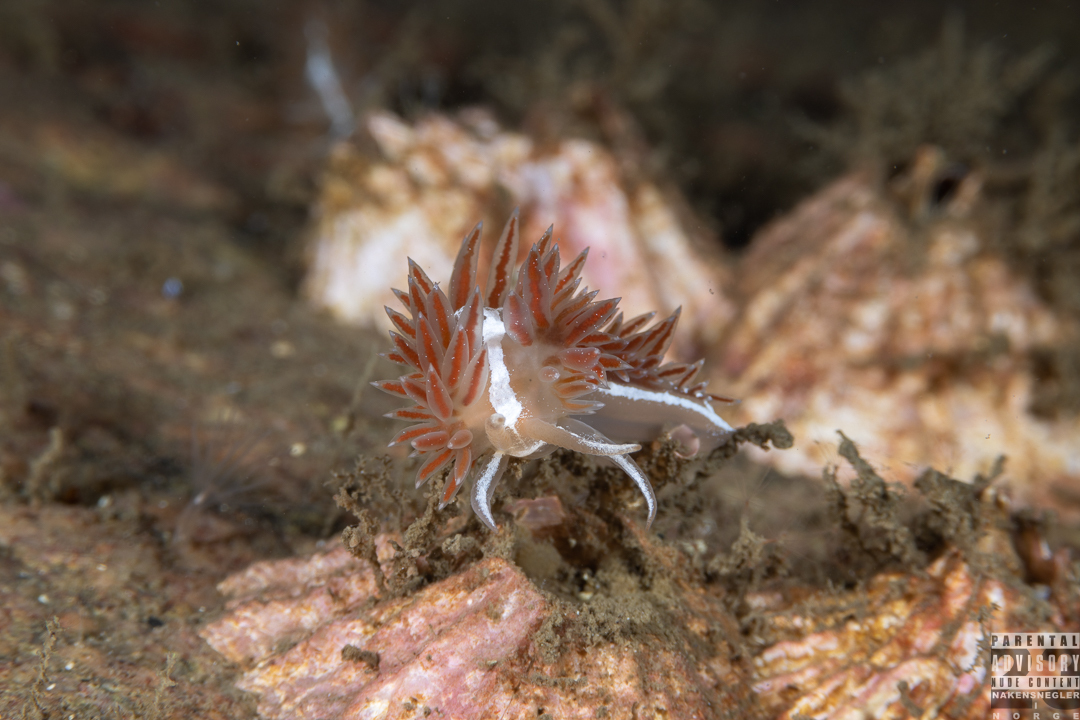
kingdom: Animalia
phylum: Mollusca
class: Gastropoda
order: Nudibranchia
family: Coryphellidae
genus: Coryphella
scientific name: Coryphella monicae
